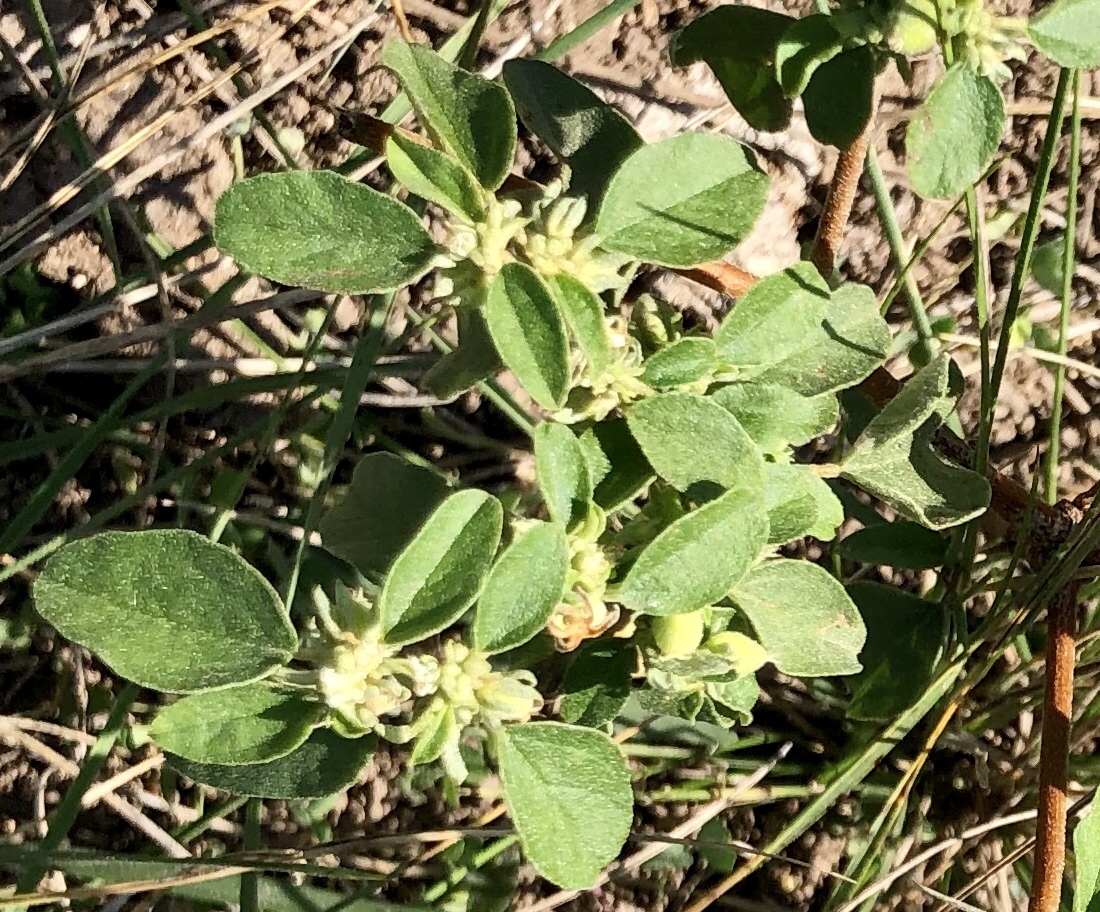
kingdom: Plantae
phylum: Tracheophyta
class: Magnoliopsida
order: Malpighiales
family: Euphorbiaceae
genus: Croton
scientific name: Croton monanthogynus
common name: One-seed croton
